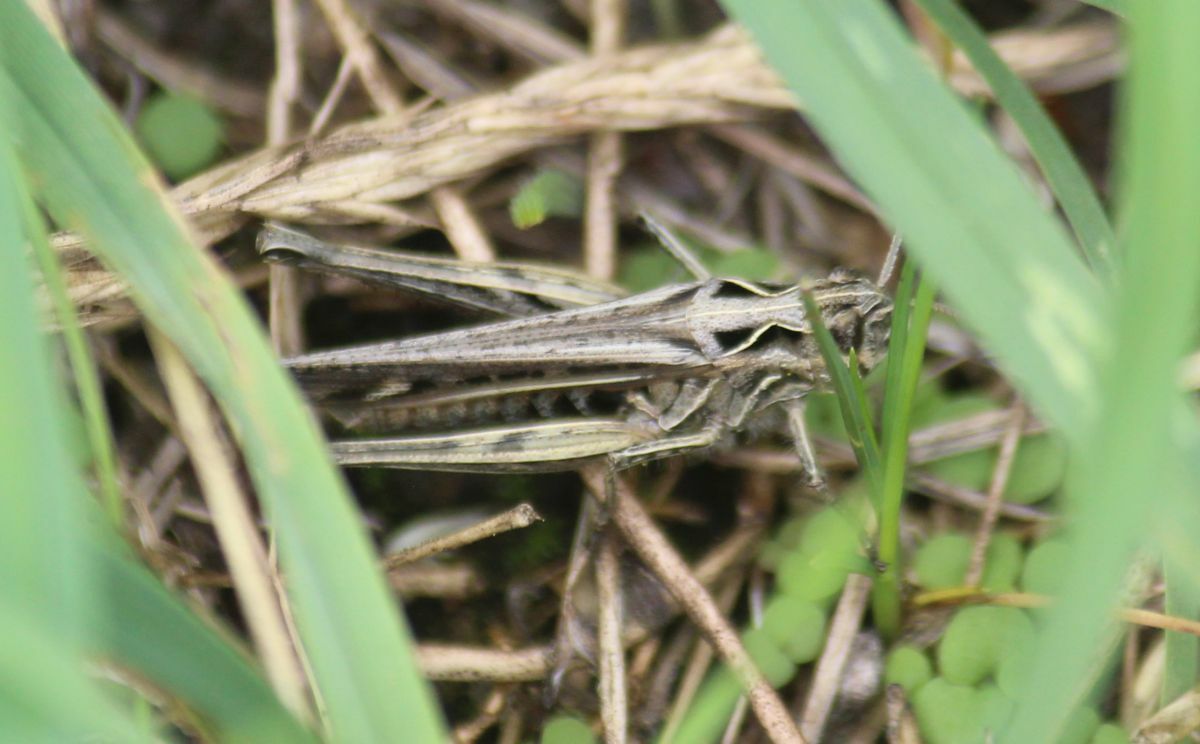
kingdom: Animalia
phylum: Arthropoda
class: Insecta
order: Orthoptera
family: Acrididae
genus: Chorthippus
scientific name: Chorthippus brunneus
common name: Field grasshopper
